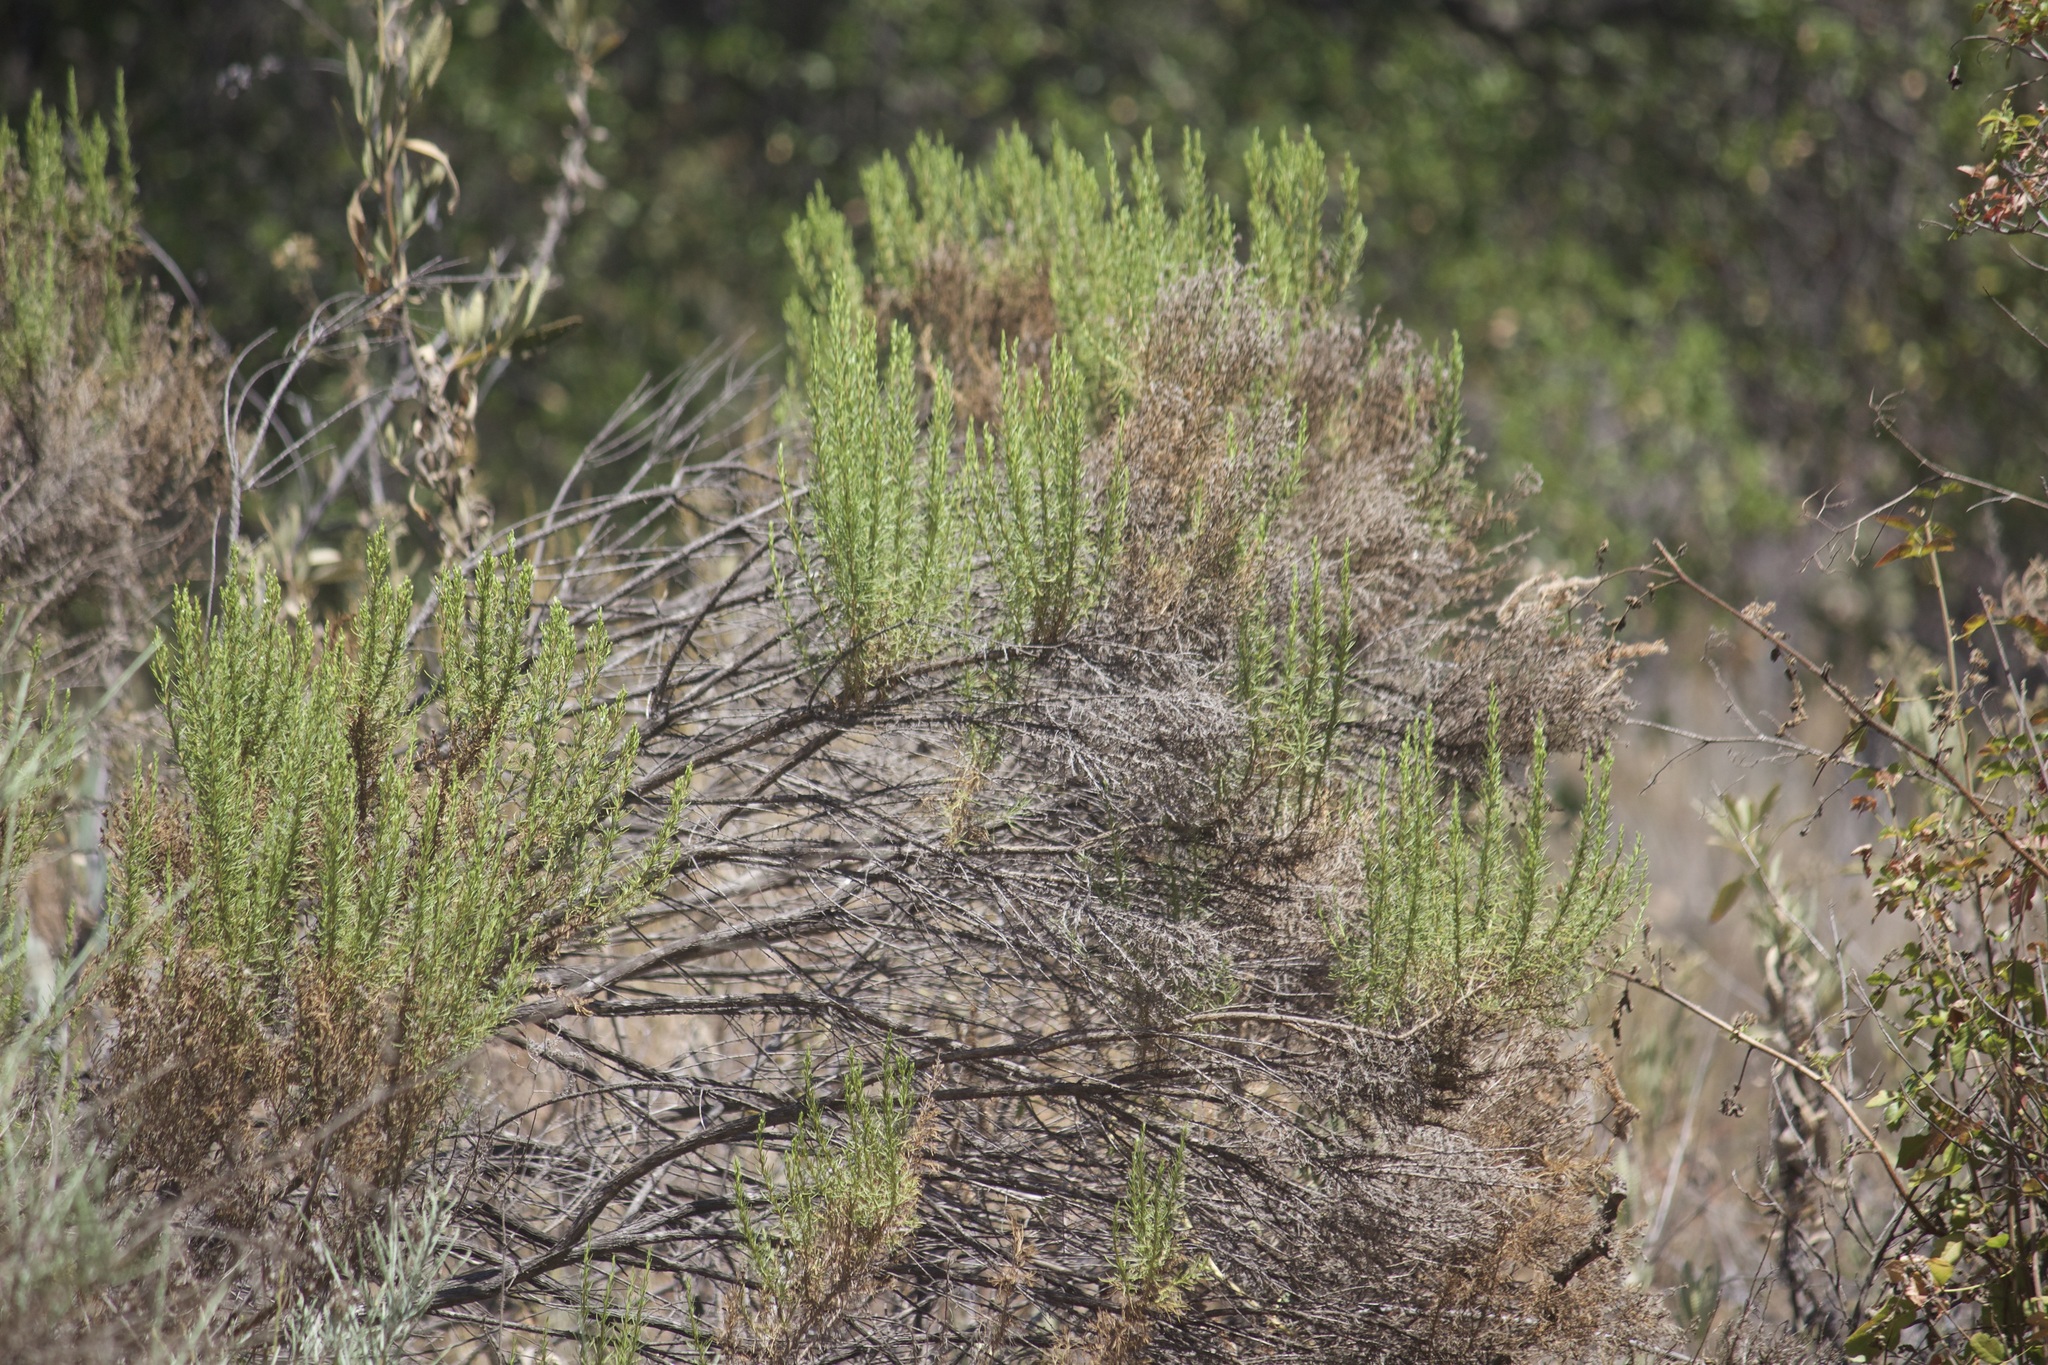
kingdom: Plantae
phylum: Tracheophyta
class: Magnoliopsida
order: Asterales
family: Asteraceae
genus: Ericameria
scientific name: Ericameria pinifolia
